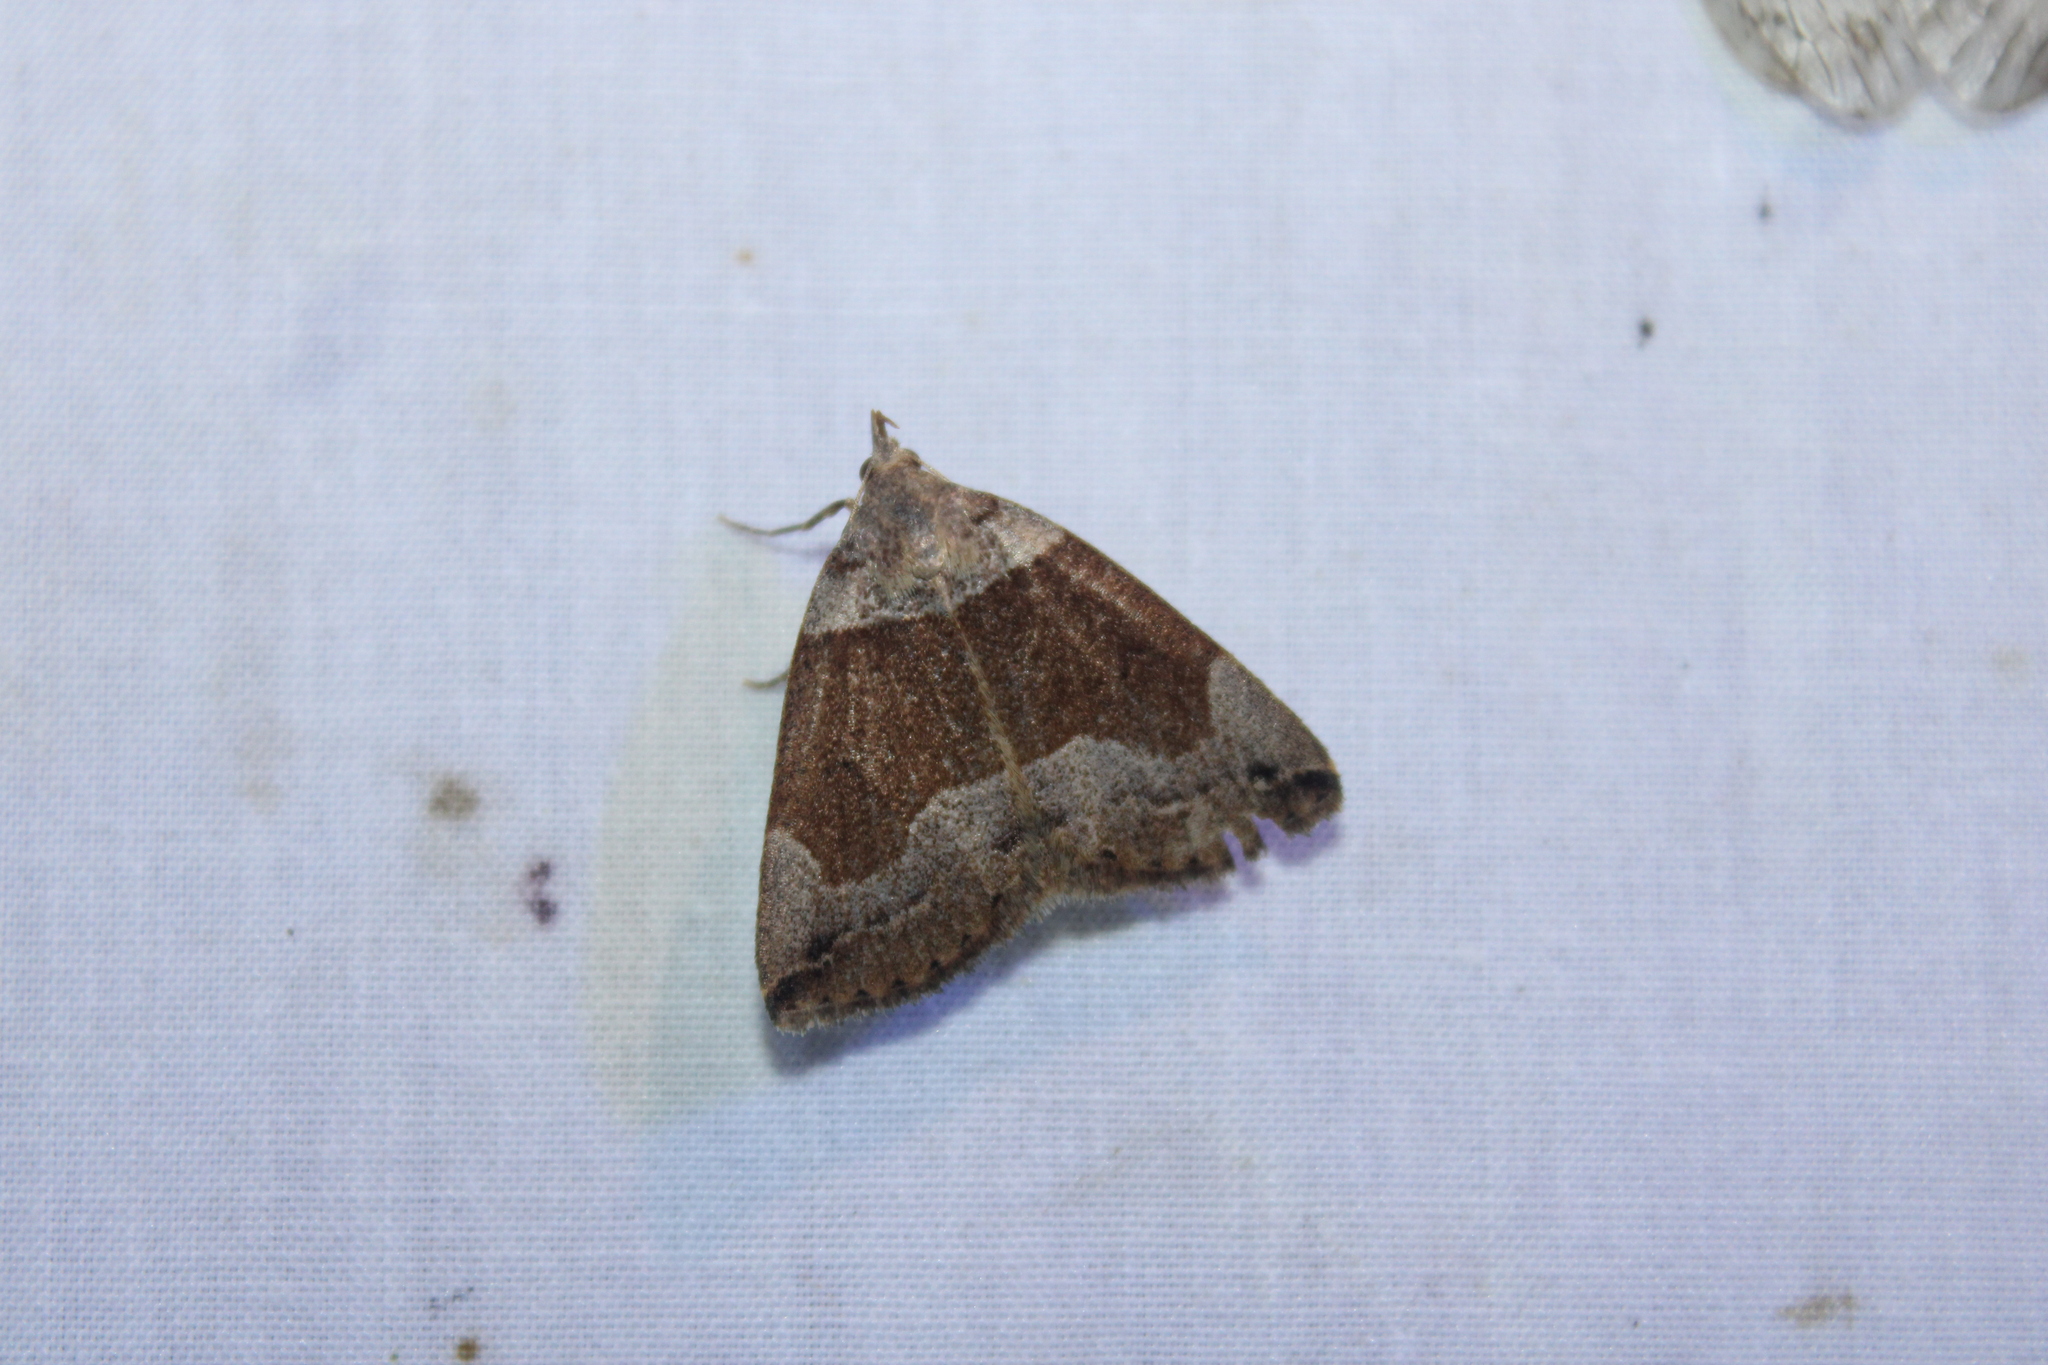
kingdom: Animalia
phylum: Arthropoda
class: Insecta
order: Lepidoptera
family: Erebidae
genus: Zanclognatha
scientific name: Zanclognatha laevigata
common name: Variable fan-foot
